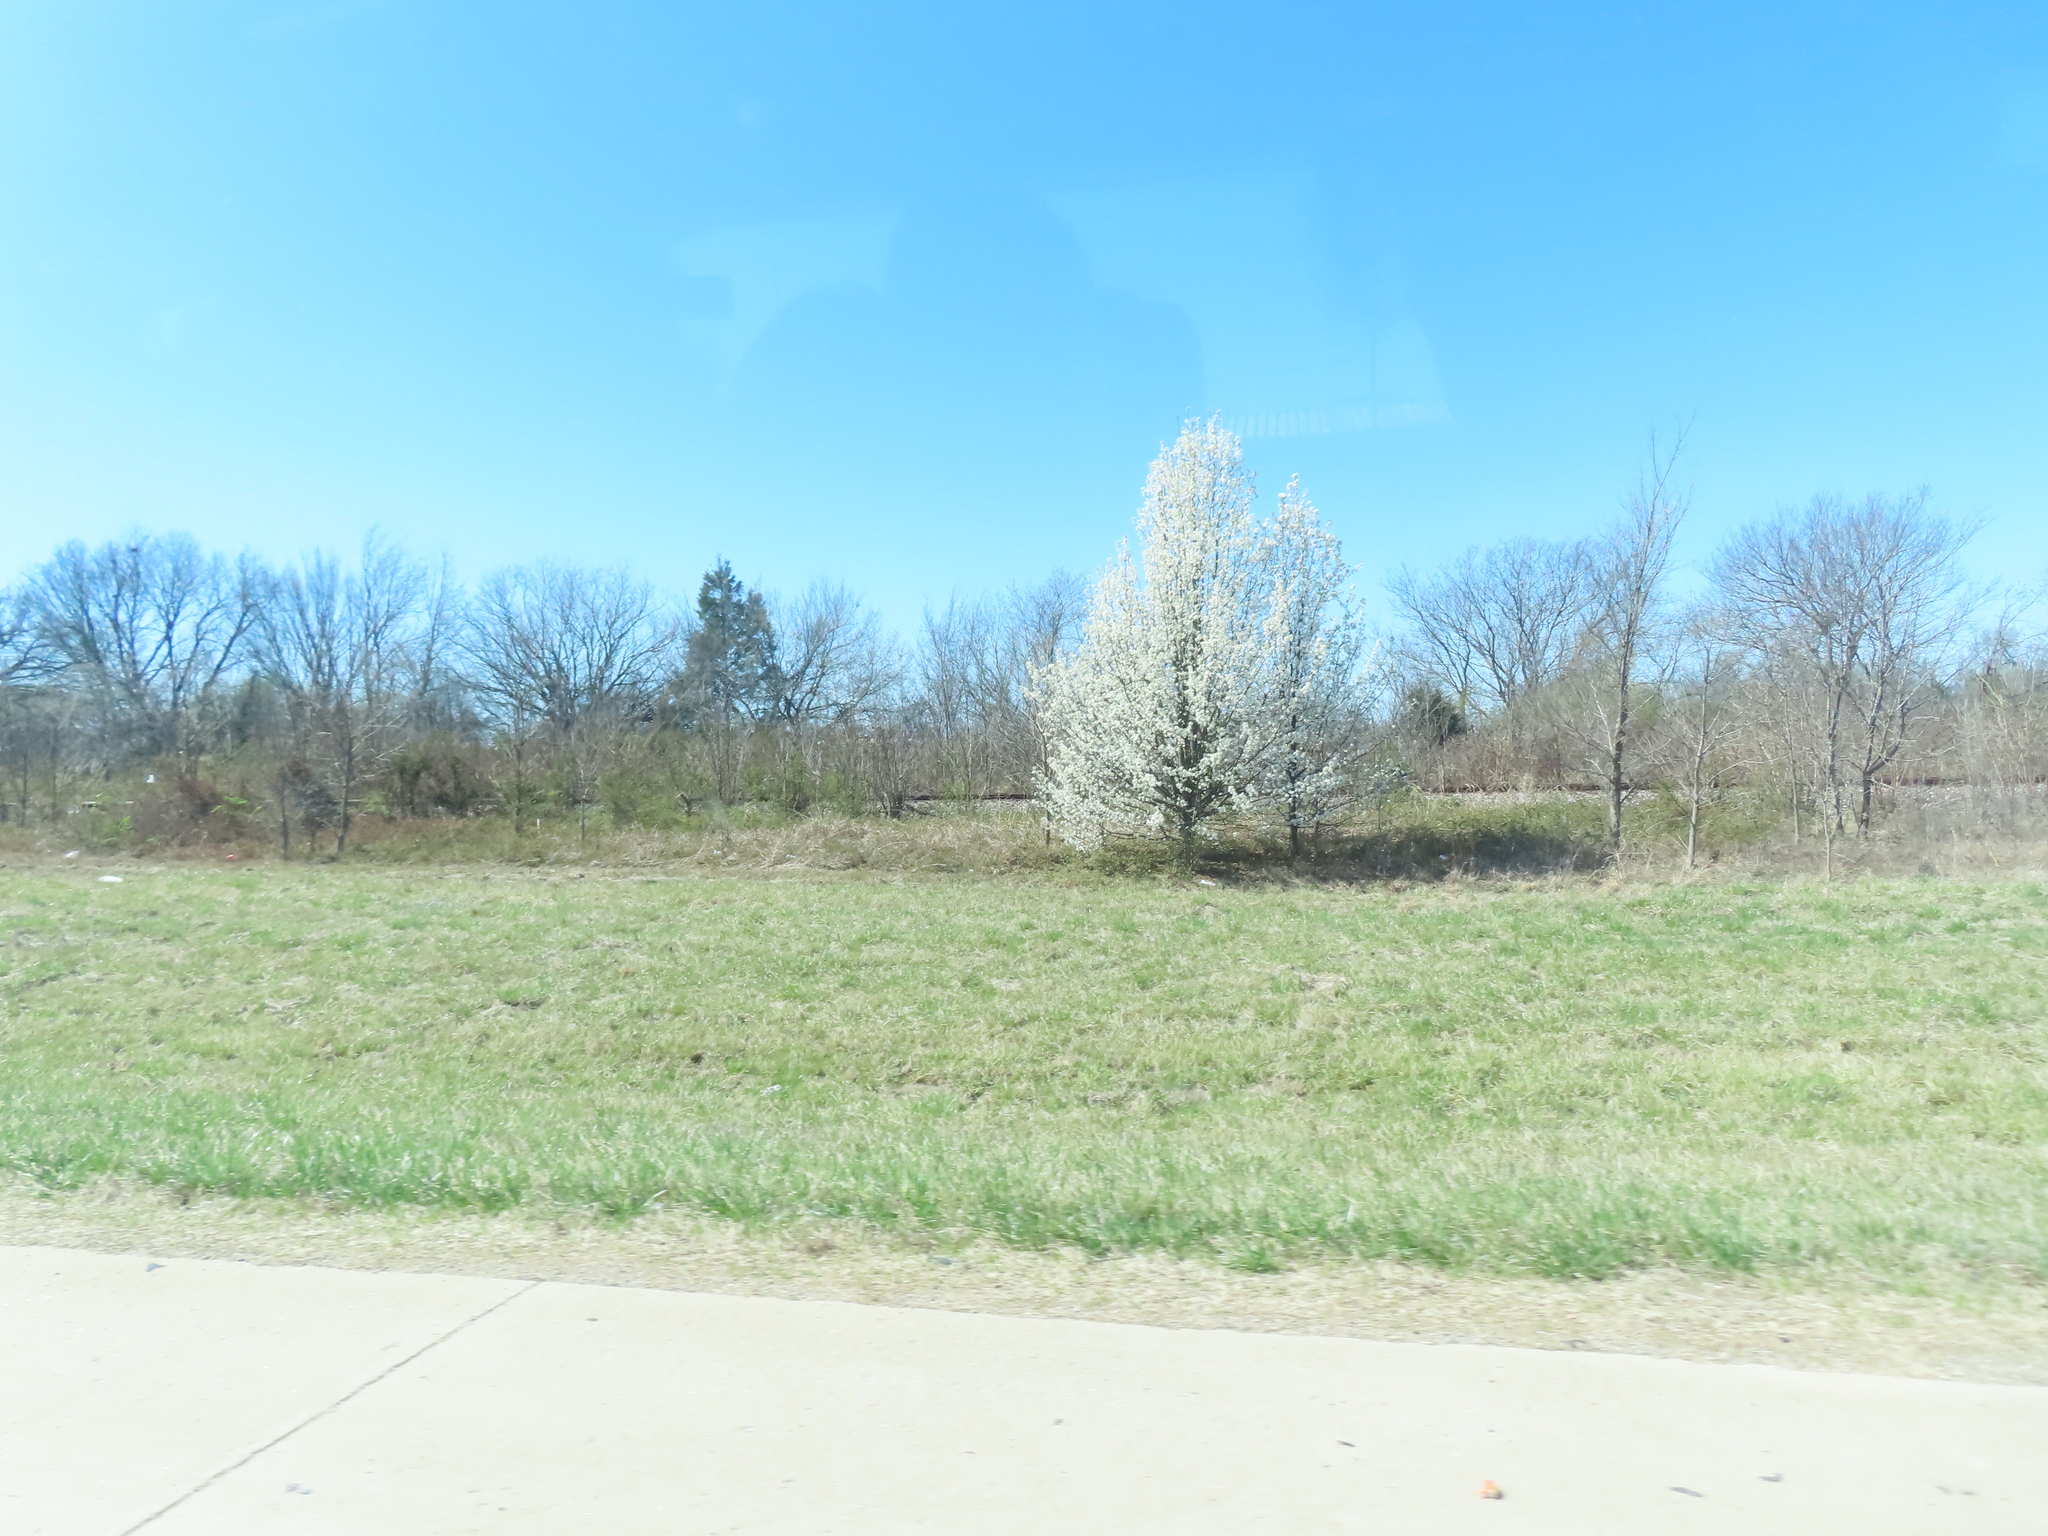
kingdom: Plantae
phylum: Tracheophyta
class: Magnoliopsida
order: Rosales
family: Rosaceae
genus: Pyrus
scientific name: Pyrus calleryana
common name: Callery pear
